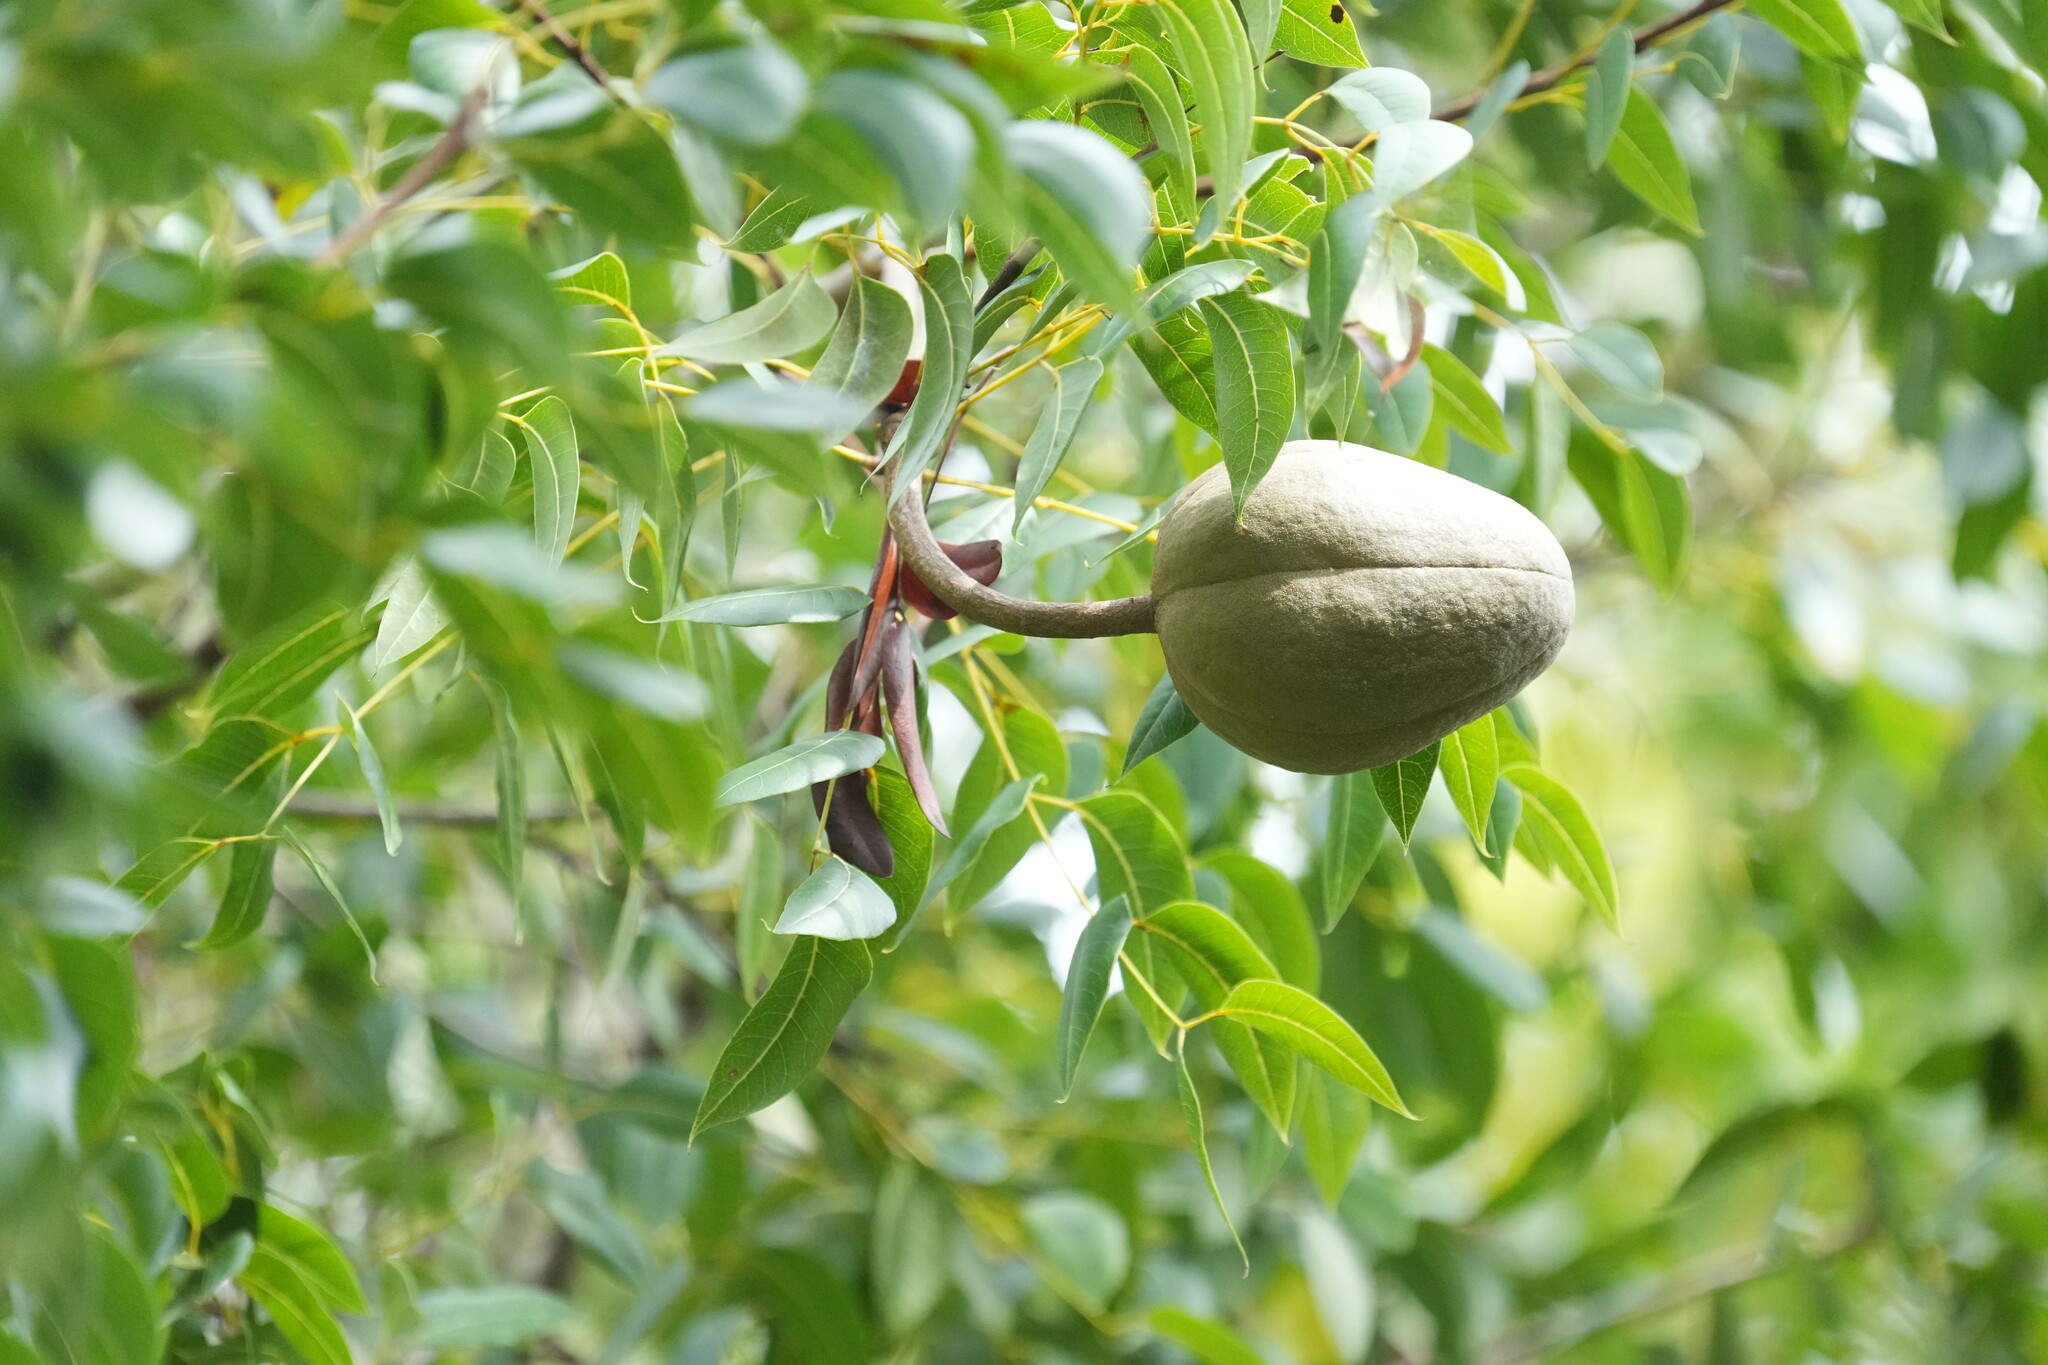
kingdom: Plantae
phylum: Tracheophyta
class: Magnoliopsida
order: Sapindales
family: Meliaceae
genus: Swietenia
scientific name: Swietenia mahagoni
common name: West indian mahogany
